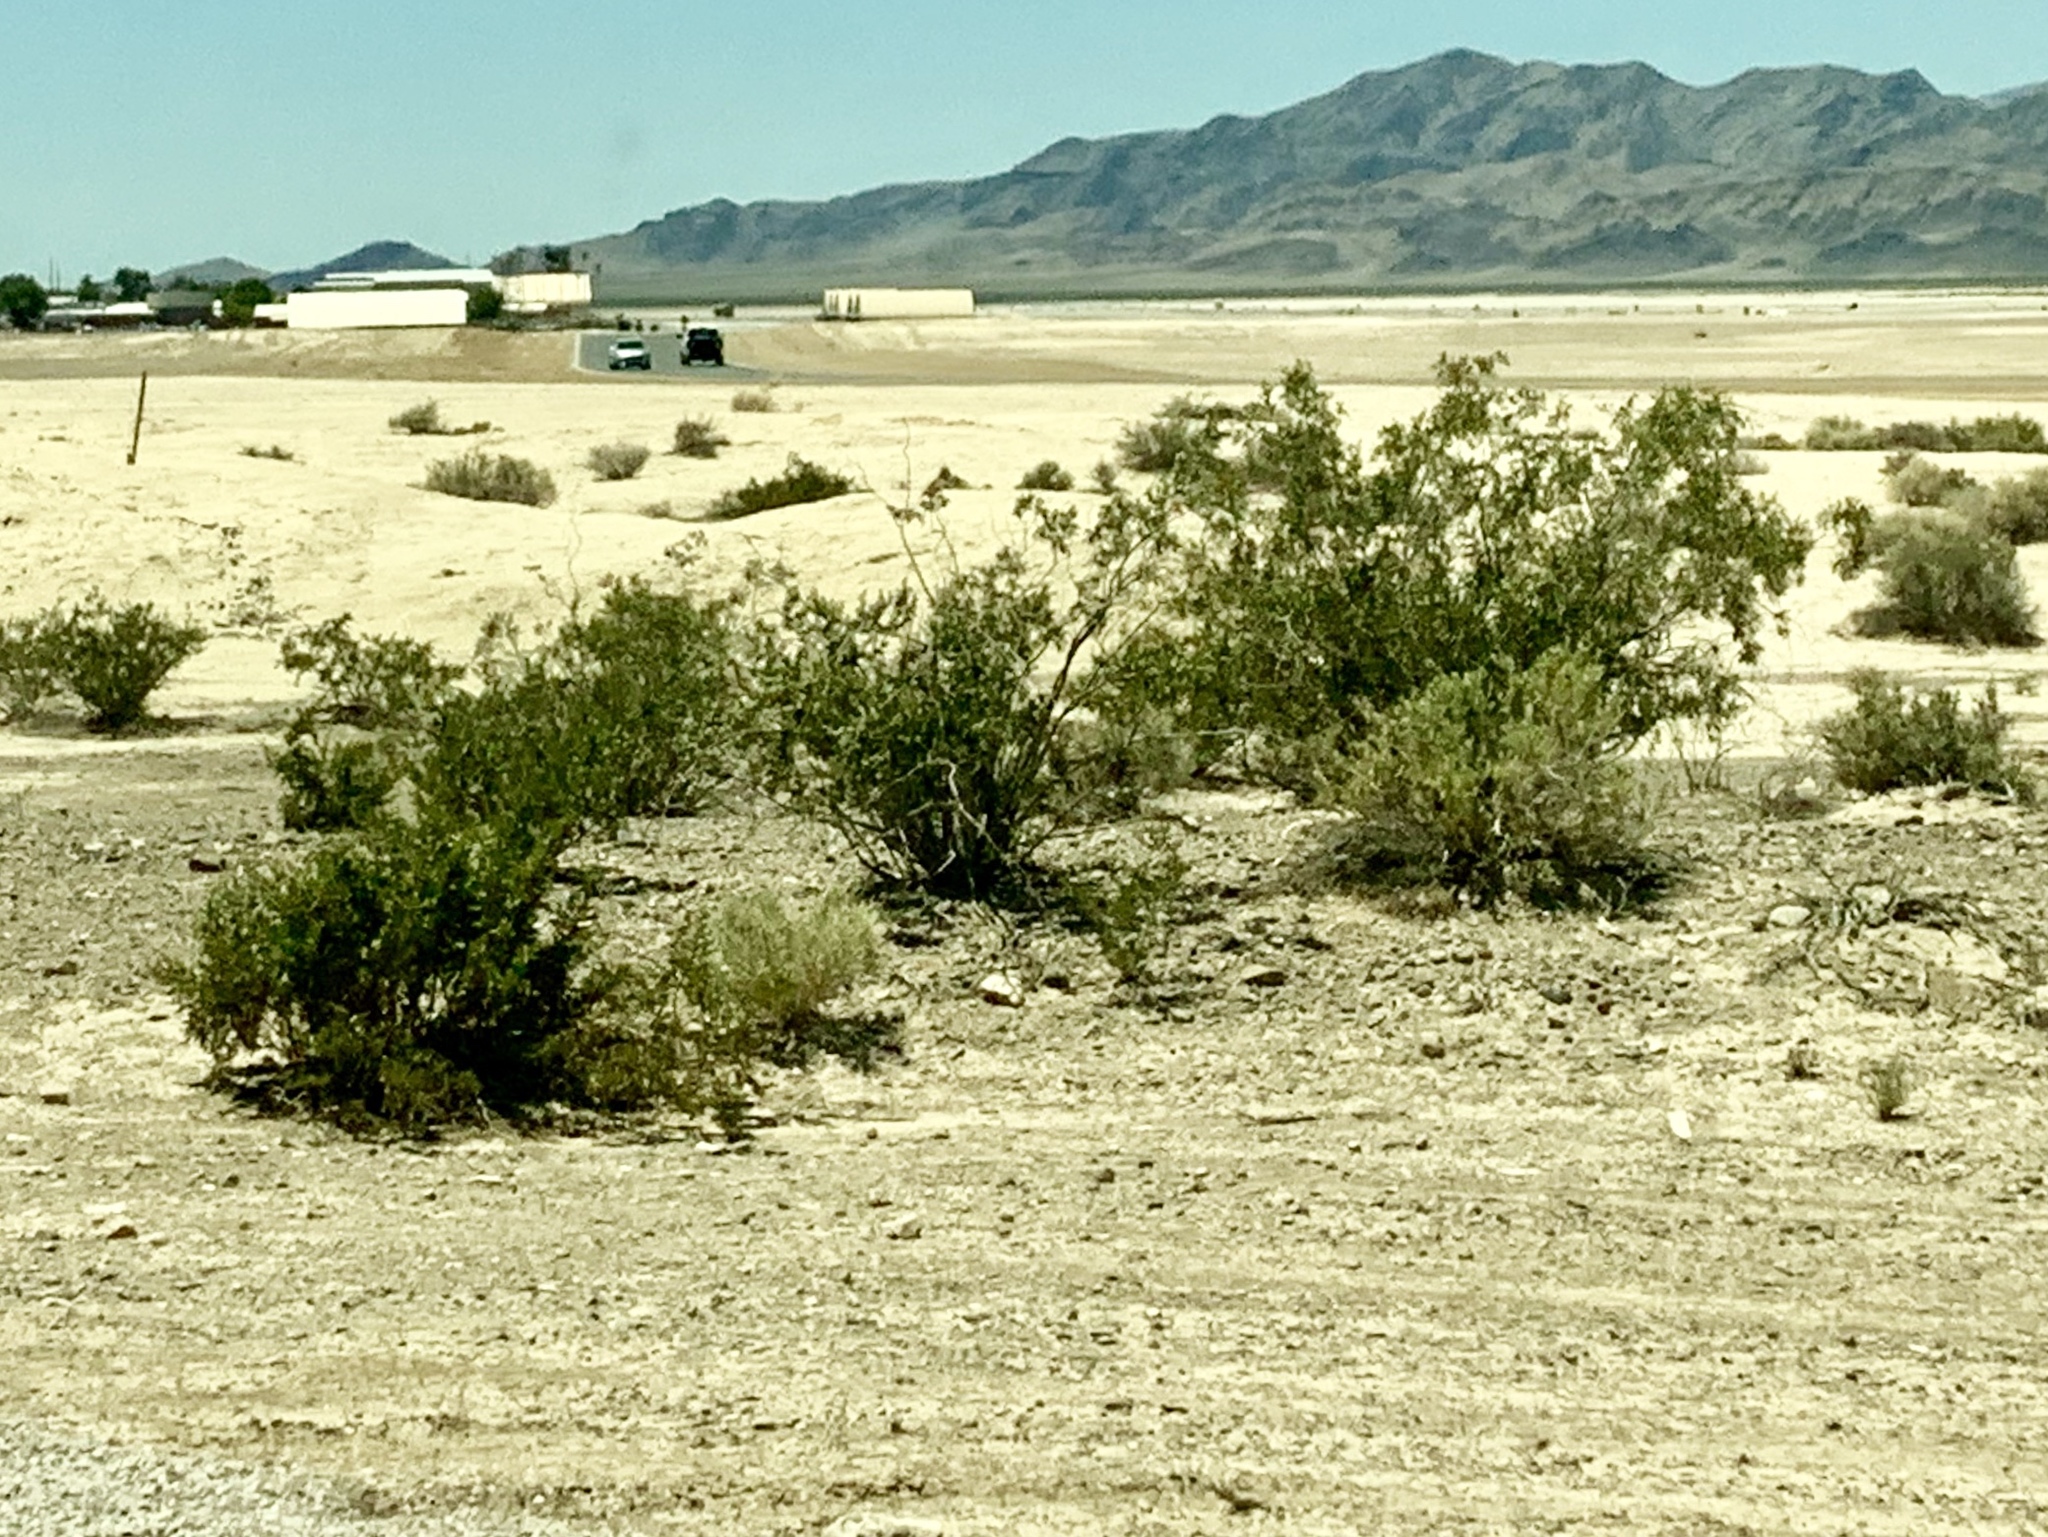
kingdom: Plantae
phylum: Tracheophyta
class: Magnoliopsida
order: Zygophyllales
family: Zygophyllaceae
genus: Larrea
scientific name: Larrea tridentata
